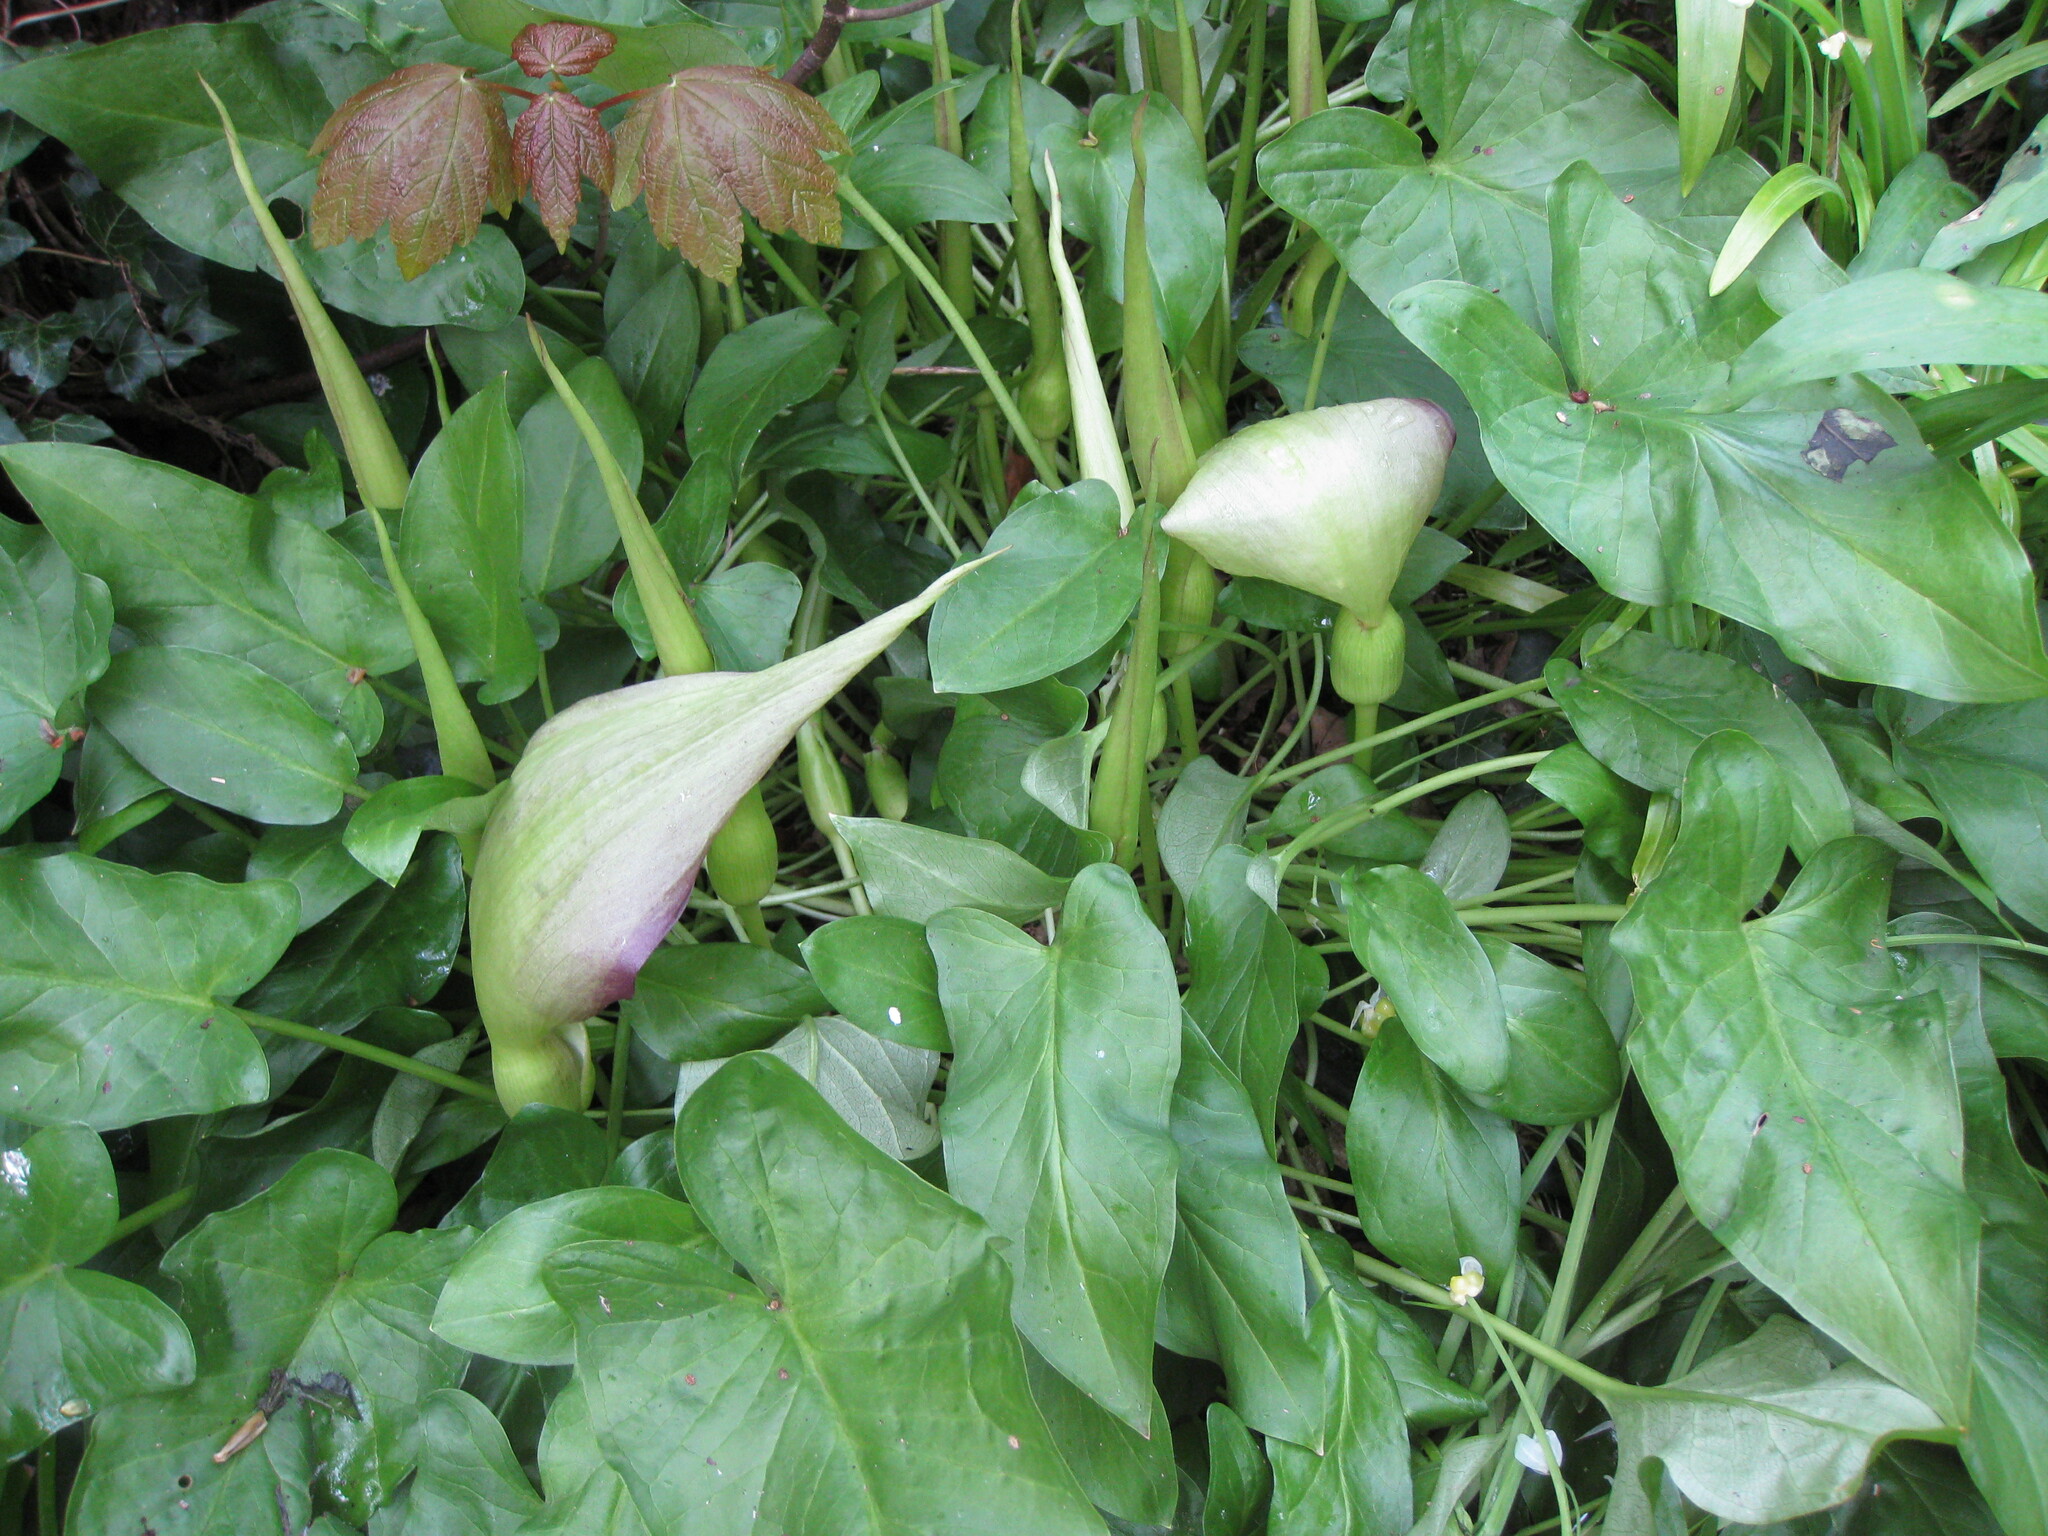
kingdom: Plantae
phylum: Tracheophyta
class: Liliopsida
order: Alismatales
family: Araceae
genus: Arum
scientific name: Arum maculatum
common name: Lords-and-ladies
